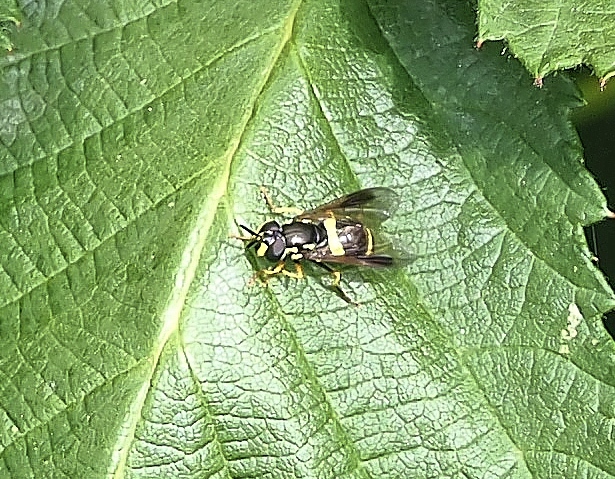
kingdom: Animalia
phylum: Arthropoda
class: Insecta
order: Diptera
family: Syrphidae
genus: Chrysotoxum
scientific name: Chrysotoxum bicincta
